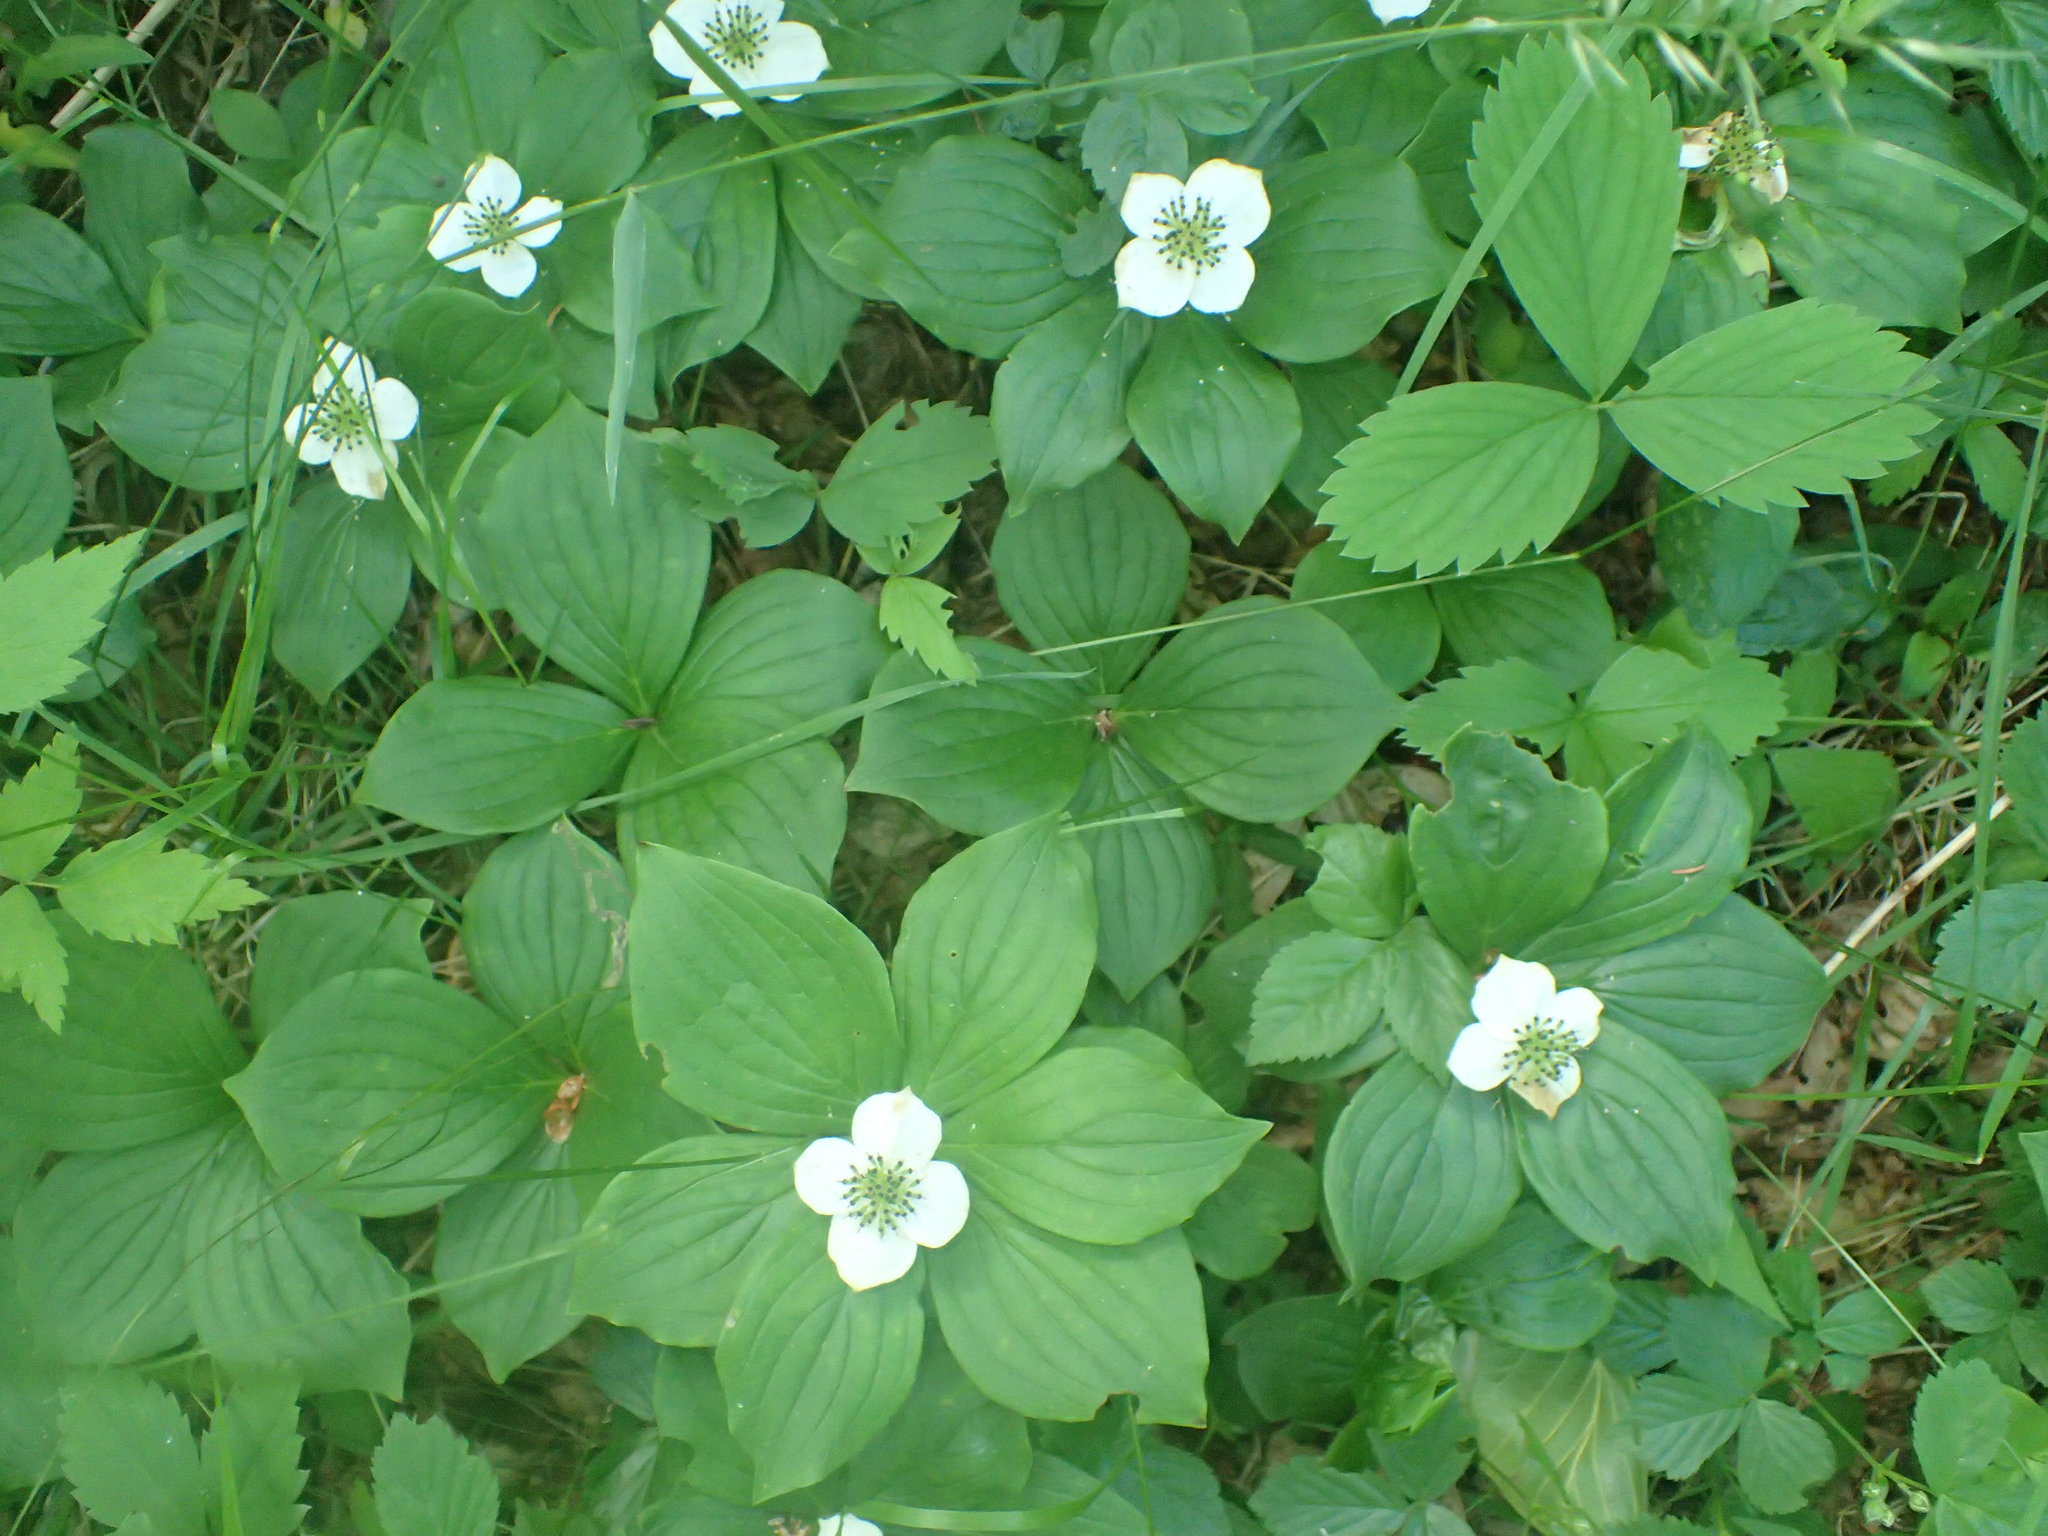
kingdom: Plantae
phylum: Tracheophyta
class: Magnoliopsida
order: Cornales
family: Cornaceae
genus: Cornus
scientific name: Cornus canadensis
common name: Creeping dogwood
